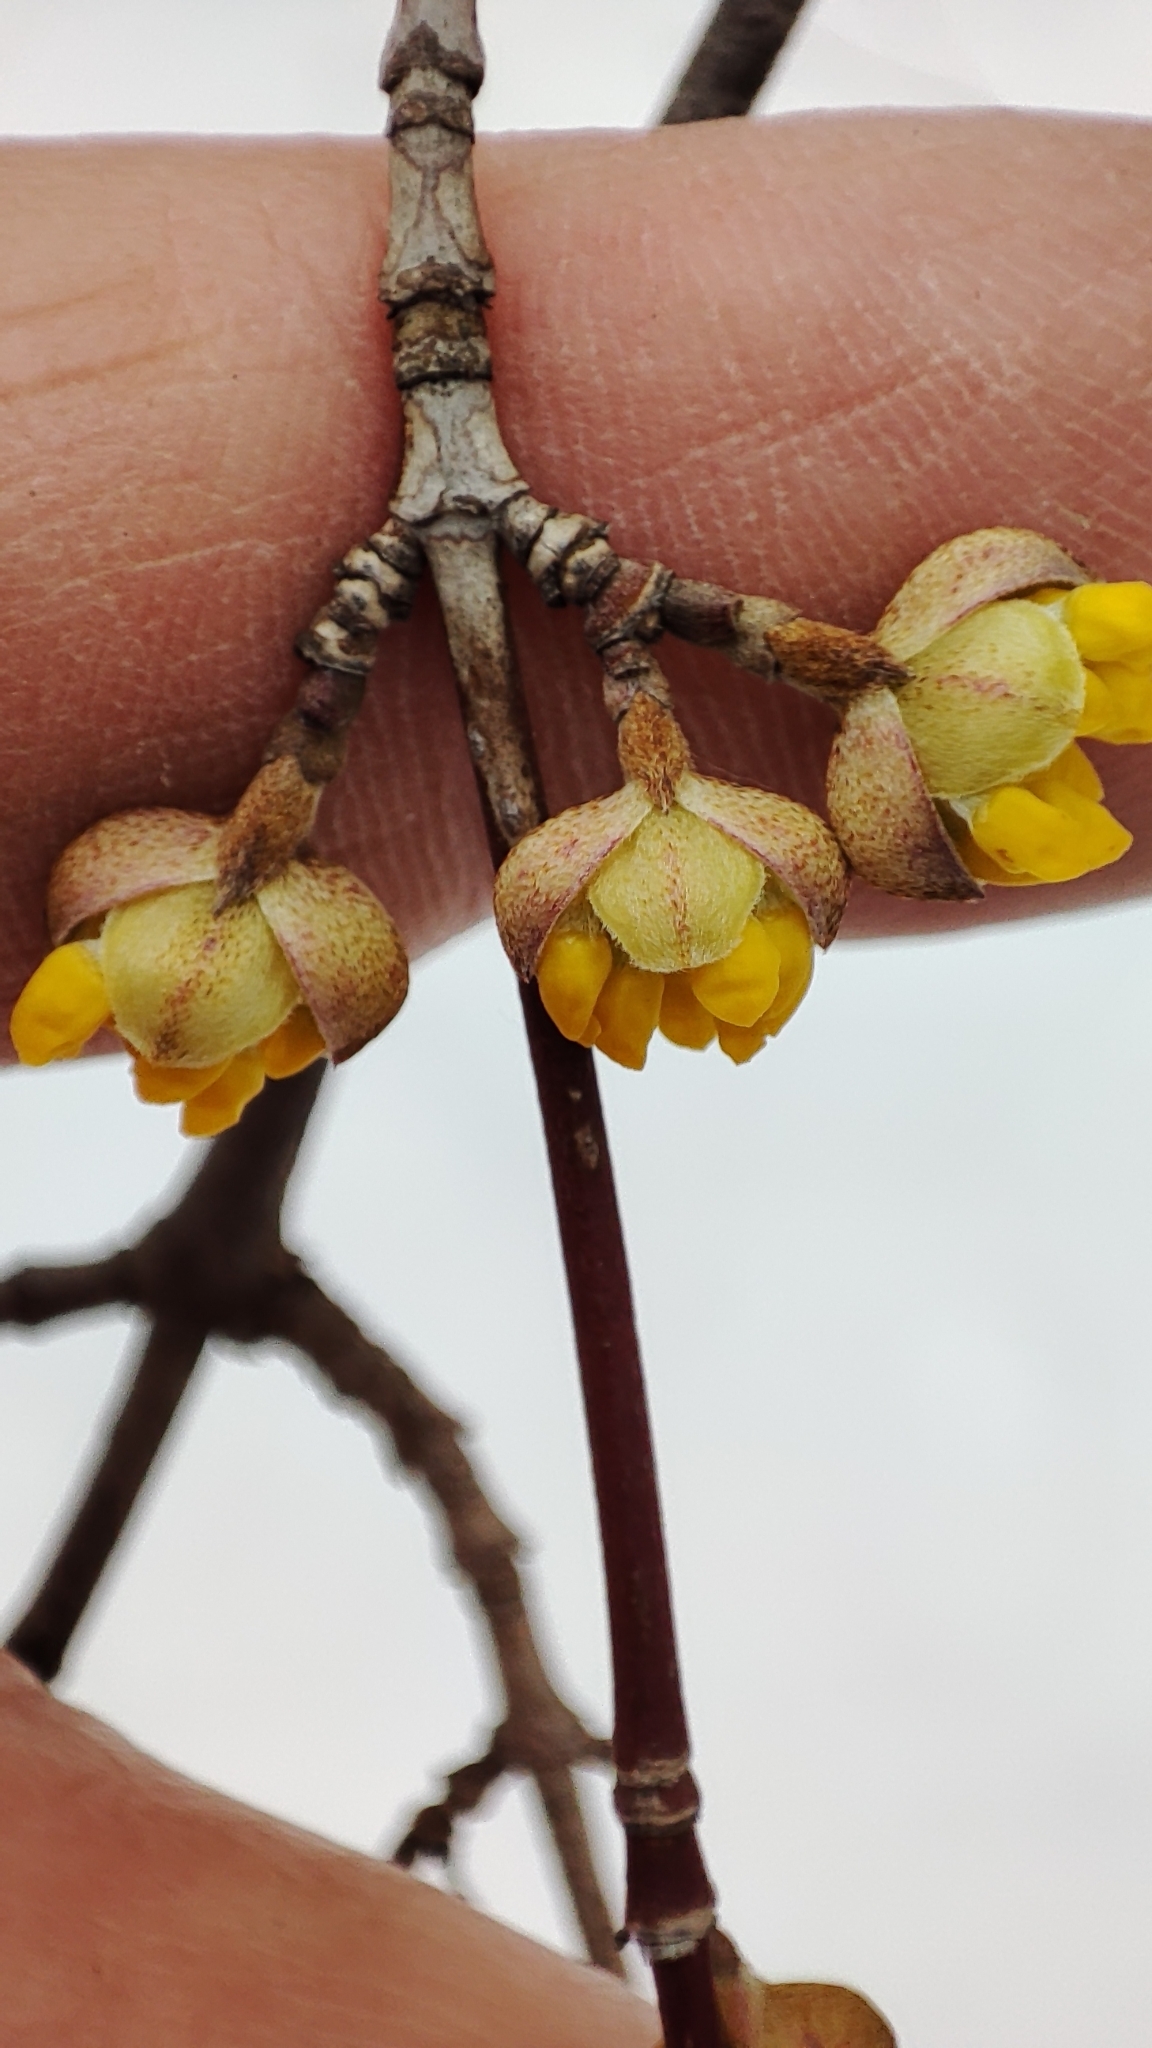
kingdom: Plantae
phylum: Tracheophyta
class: Magnoliopsida
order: Cornales
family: Cornaceae
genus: Cornus
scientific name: Cornus mas
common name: Cornelian-cherry
